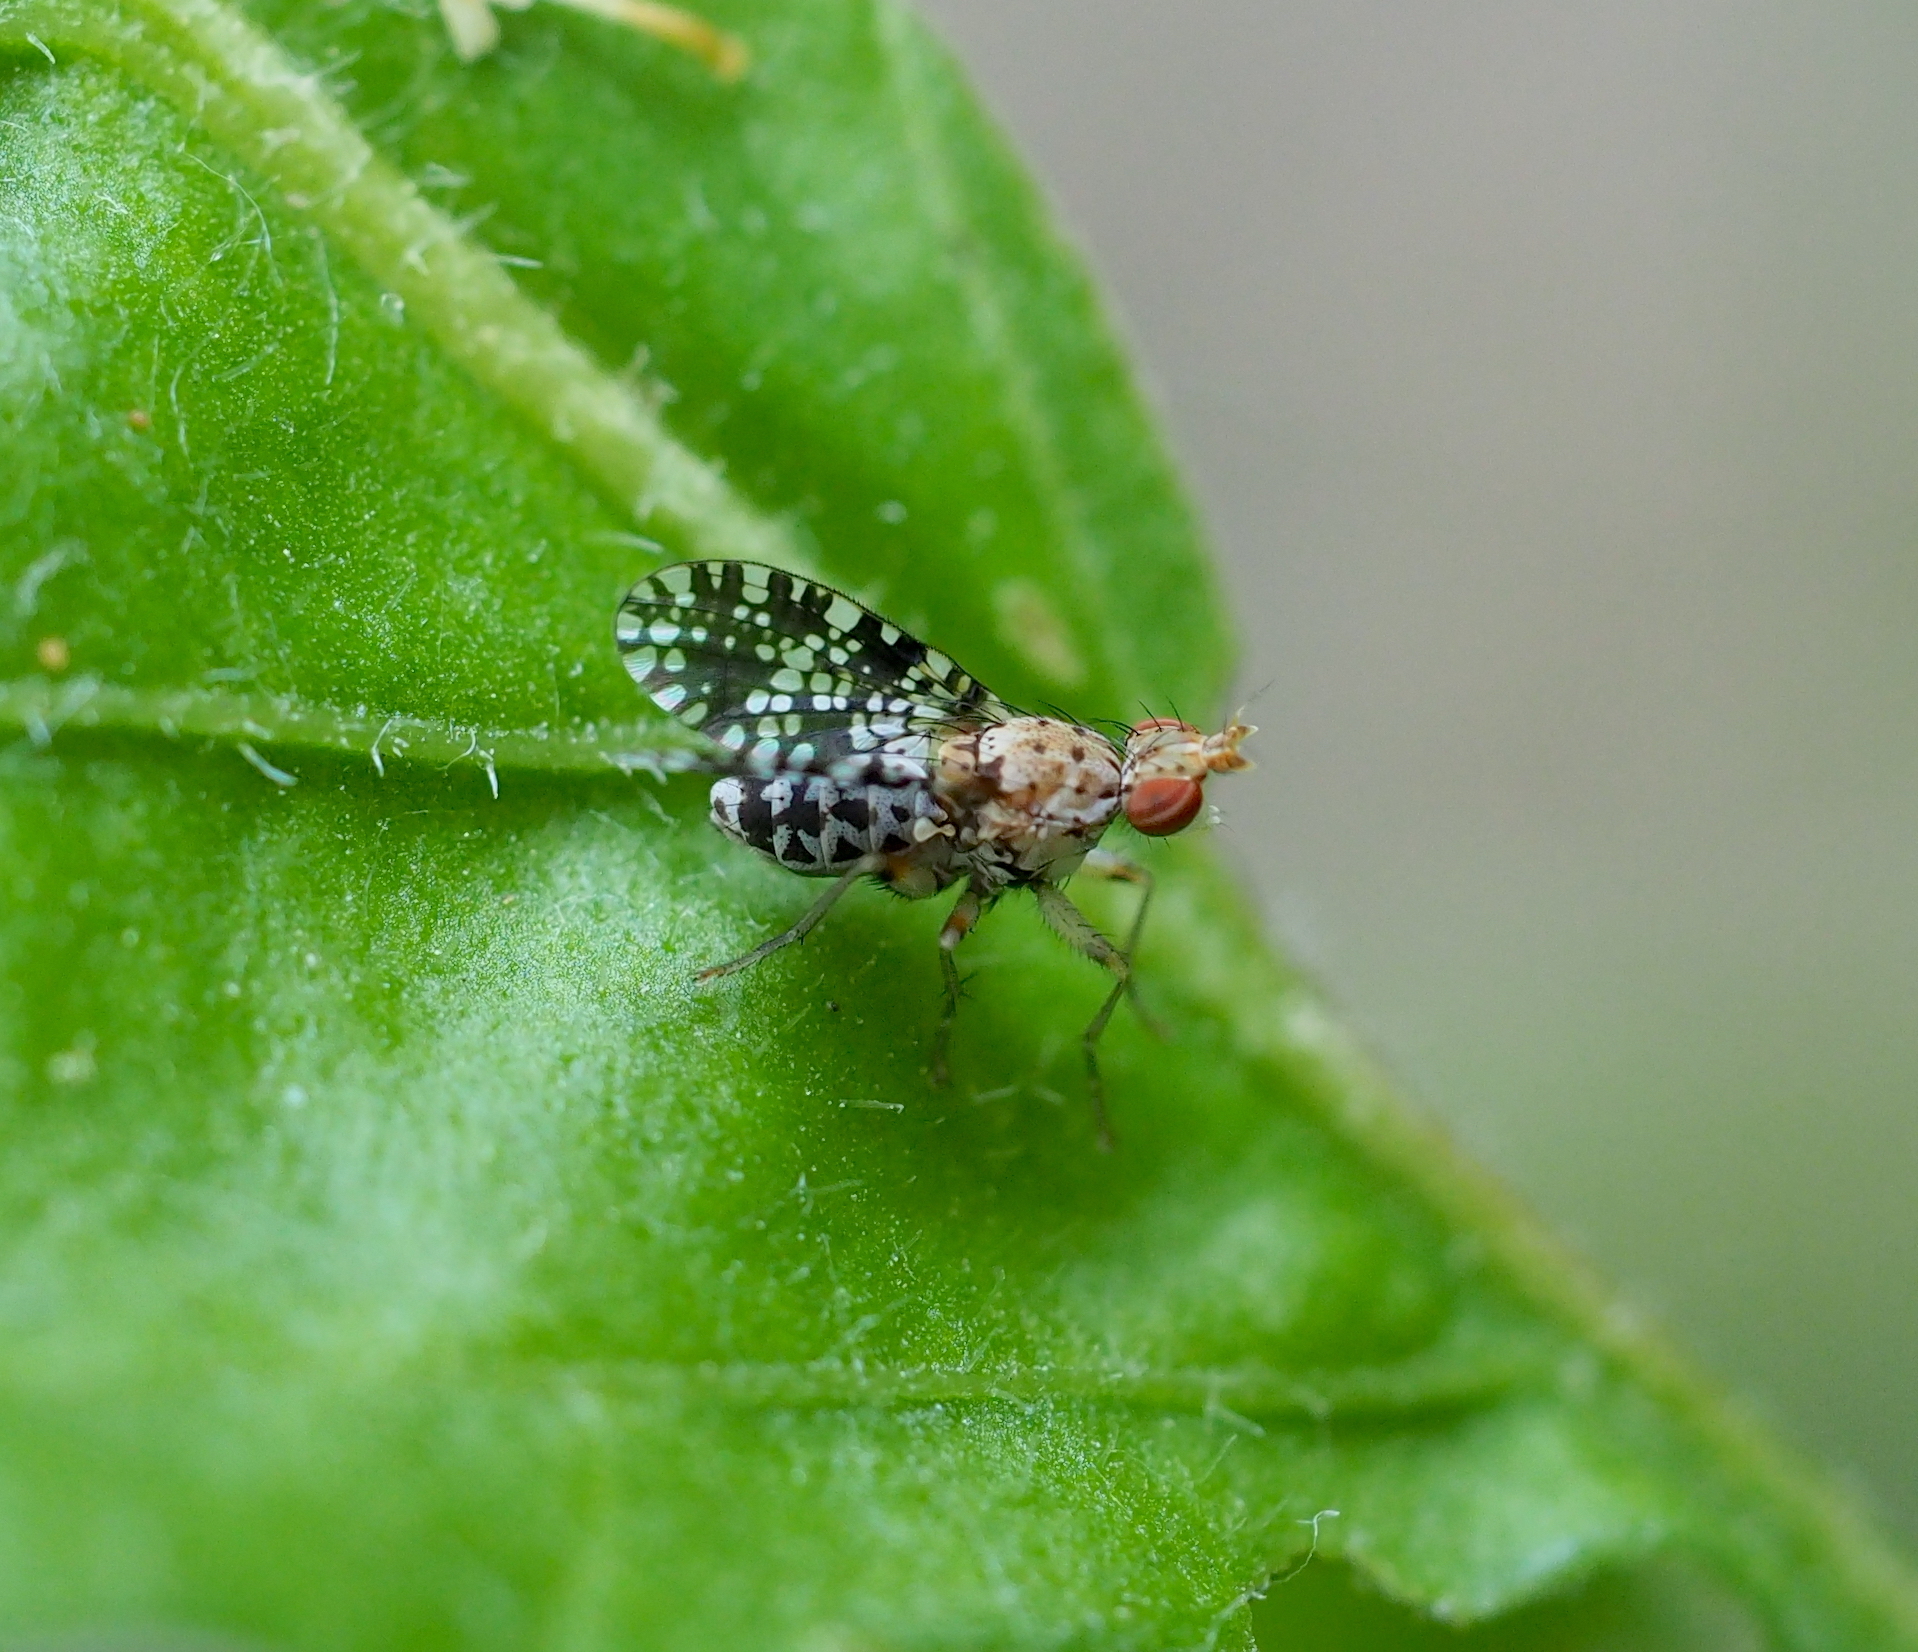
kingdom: Animalia
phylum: Arthropoda
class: Insecta
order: Diptera
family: Sciomyzidae
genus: Trypetoptera
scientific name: Trypetoptera punctulata
